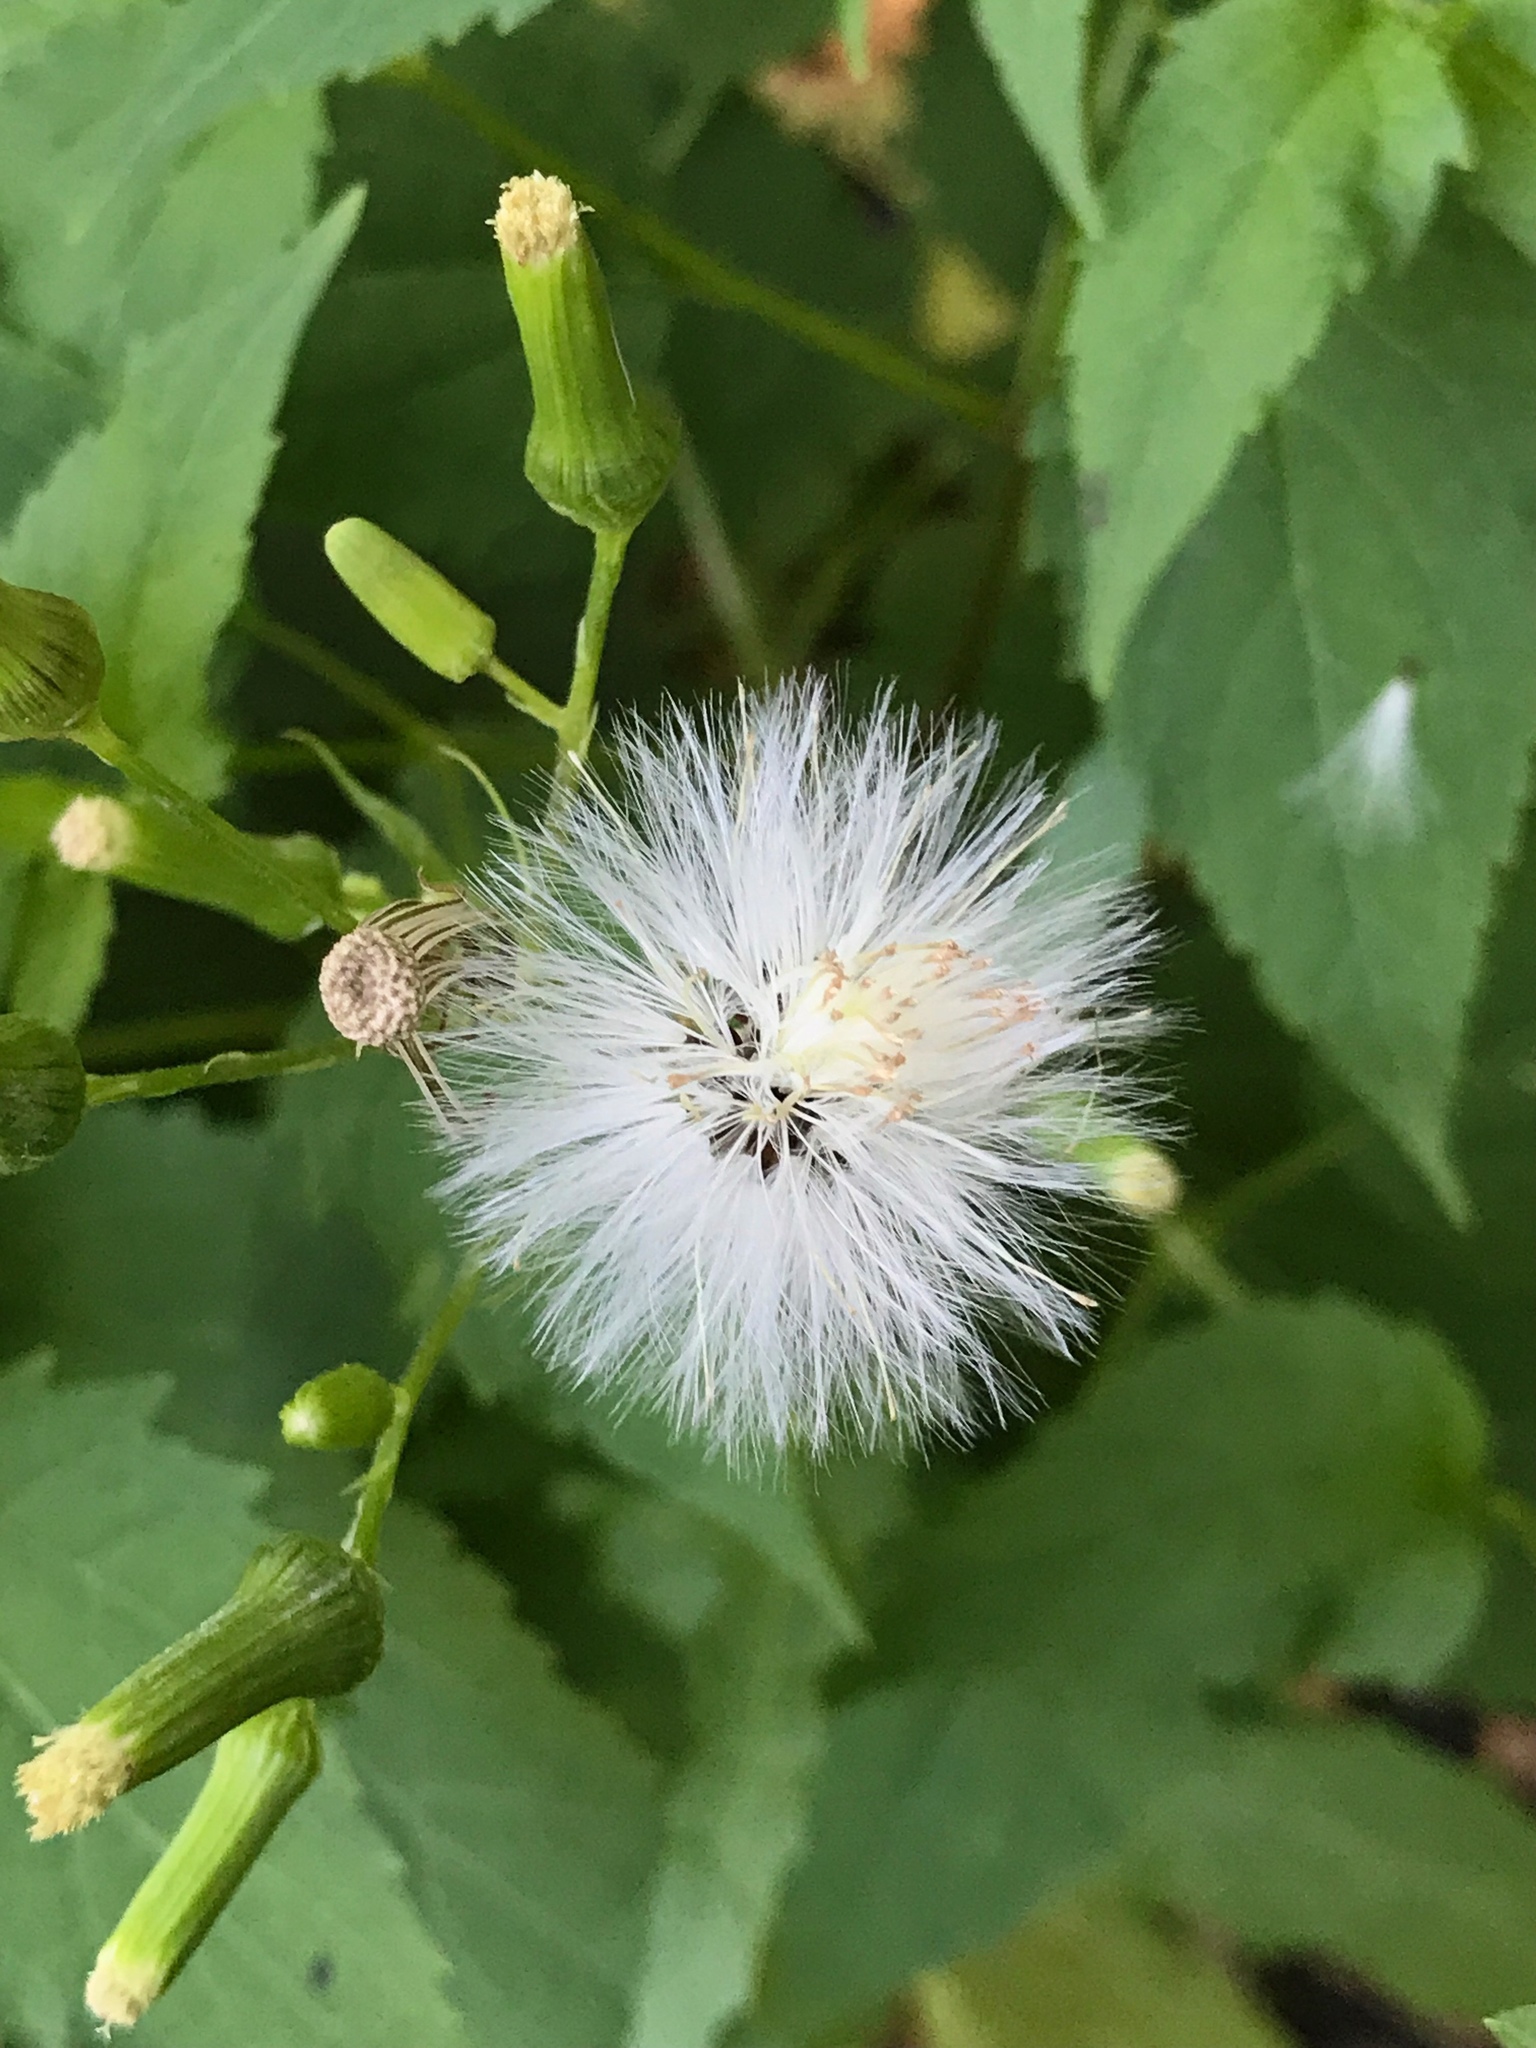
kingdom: Plantae
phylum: Tracheophyta
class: Magnoliopsida
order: Asterales
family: Asteraceae
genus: Erechtites
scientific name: Erechtites hieraciifolius
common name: American burnweed
